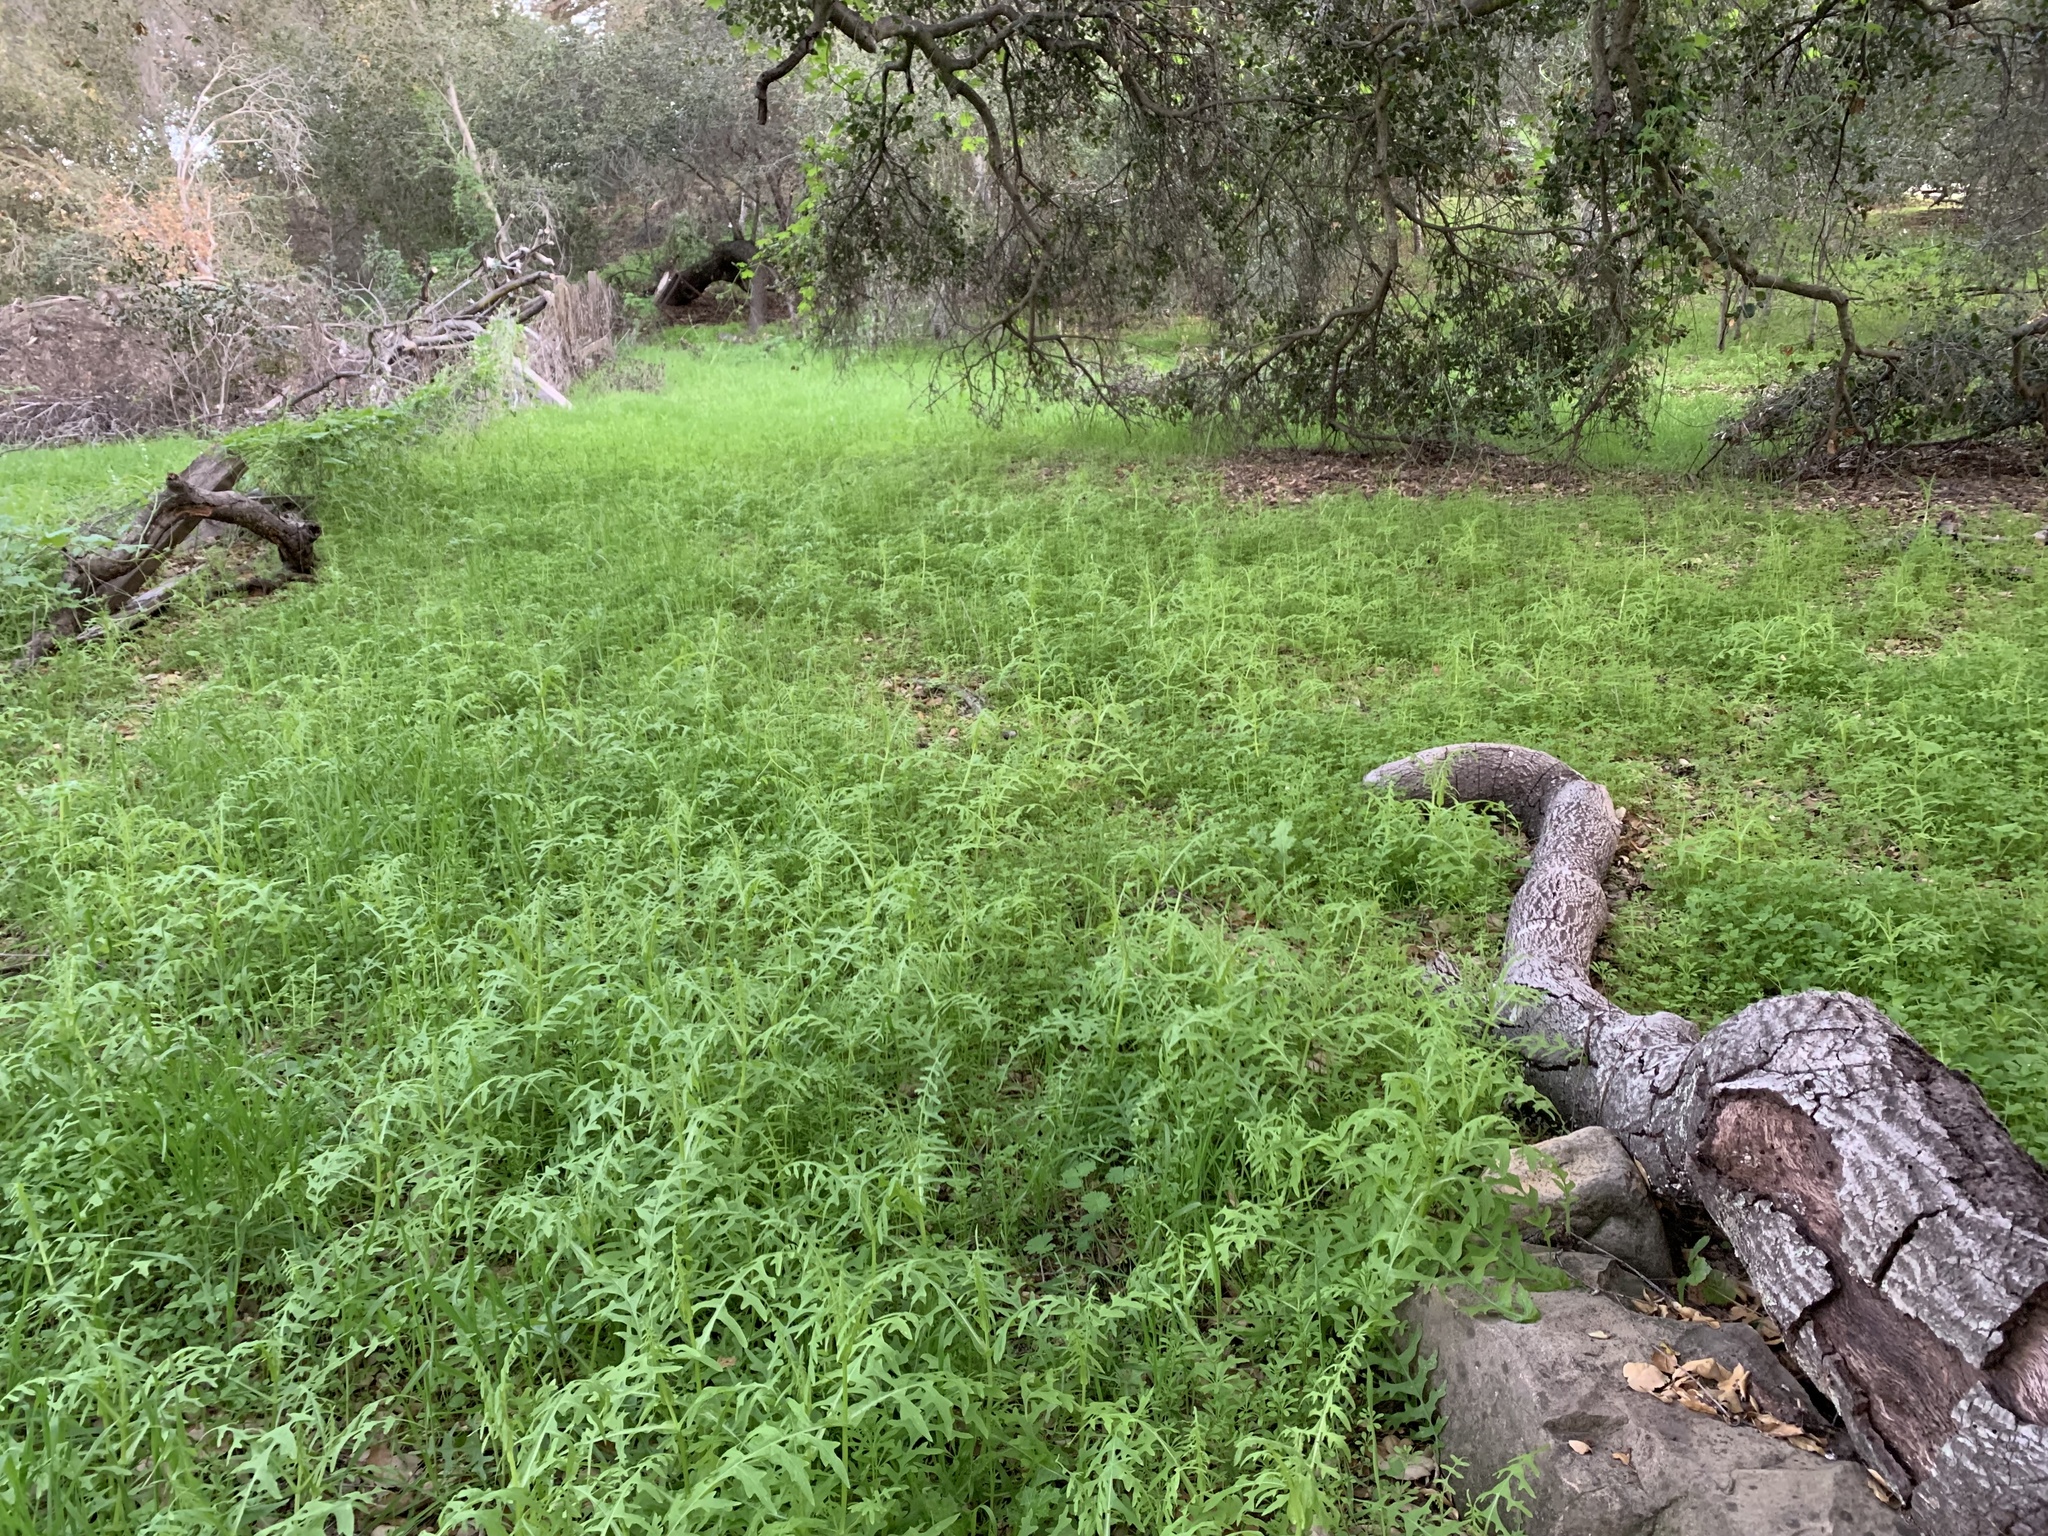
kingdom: Plantae
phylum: Tracheophyta
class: Magnoliopsida
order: Boraginales
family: Hydrophyllaceae
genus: Pholistoma
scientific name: Pholistoma auritum
